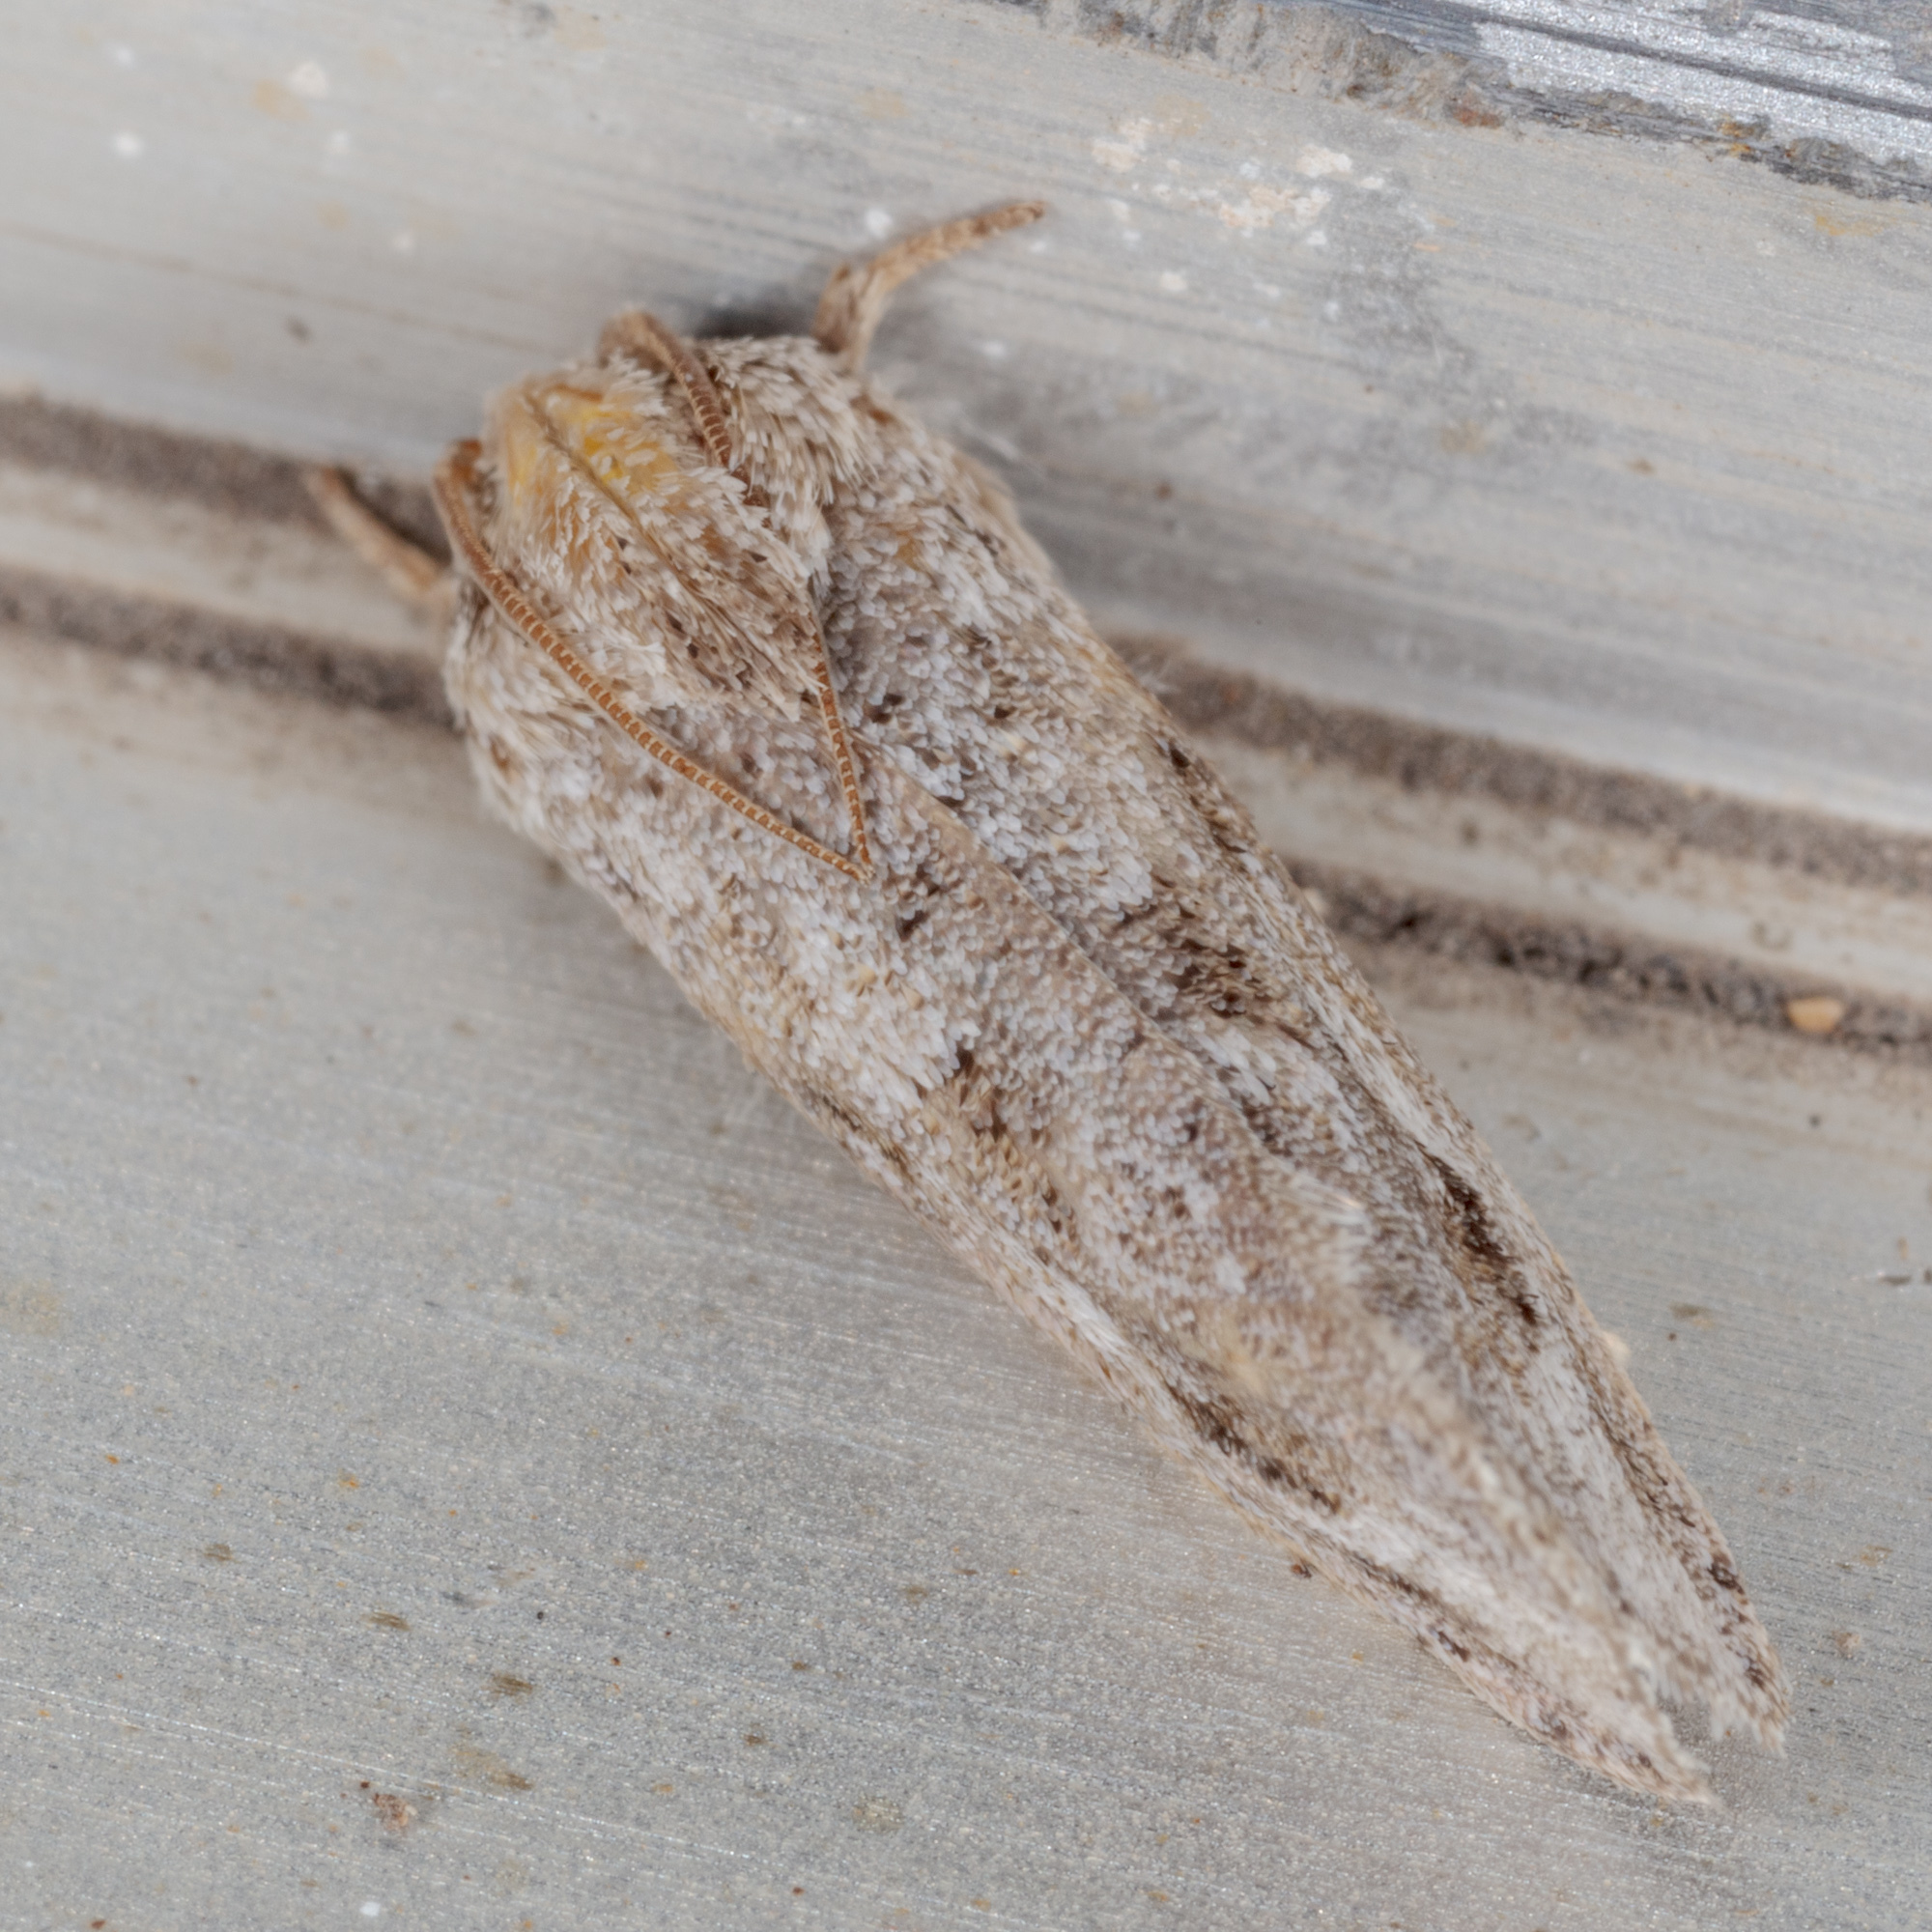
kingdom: Animalia
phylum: Arthropoda
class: Insecta
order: Lepidoptera
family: Tineidae
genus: Acrolophus
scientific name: Acrolophus griseus
